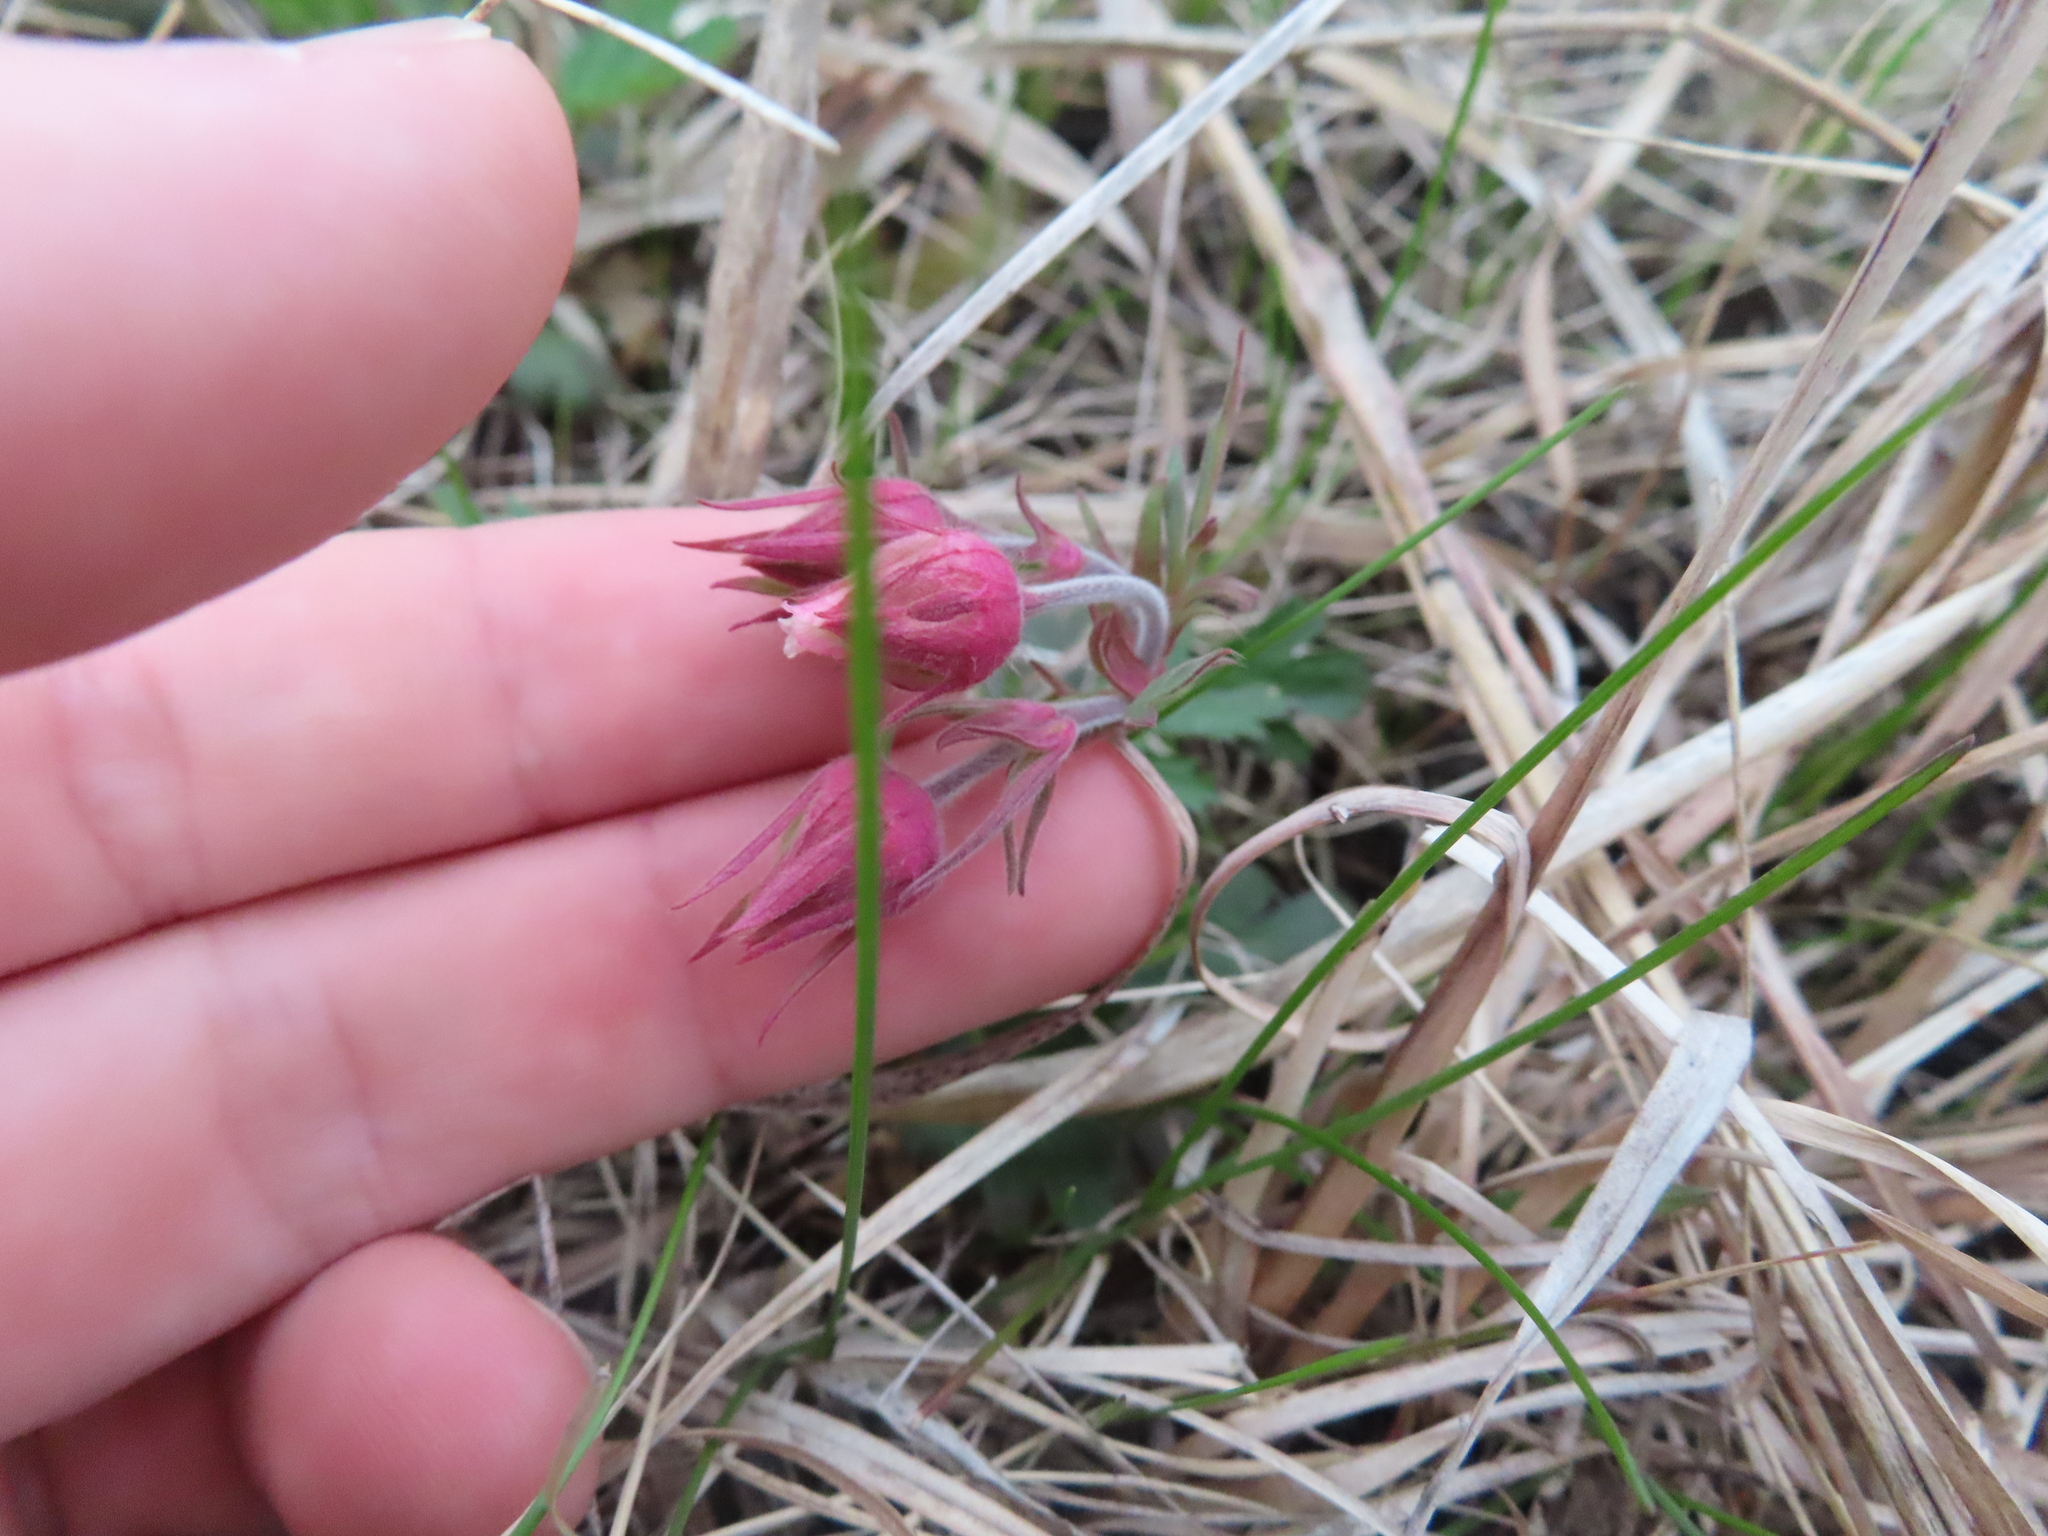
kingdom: Plantae
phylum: Tracheophyta
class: Magnoliopsida
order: Rosales
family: Rosaceae
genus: Geum
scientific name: Geum triflorum
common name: Old man's whiskers
